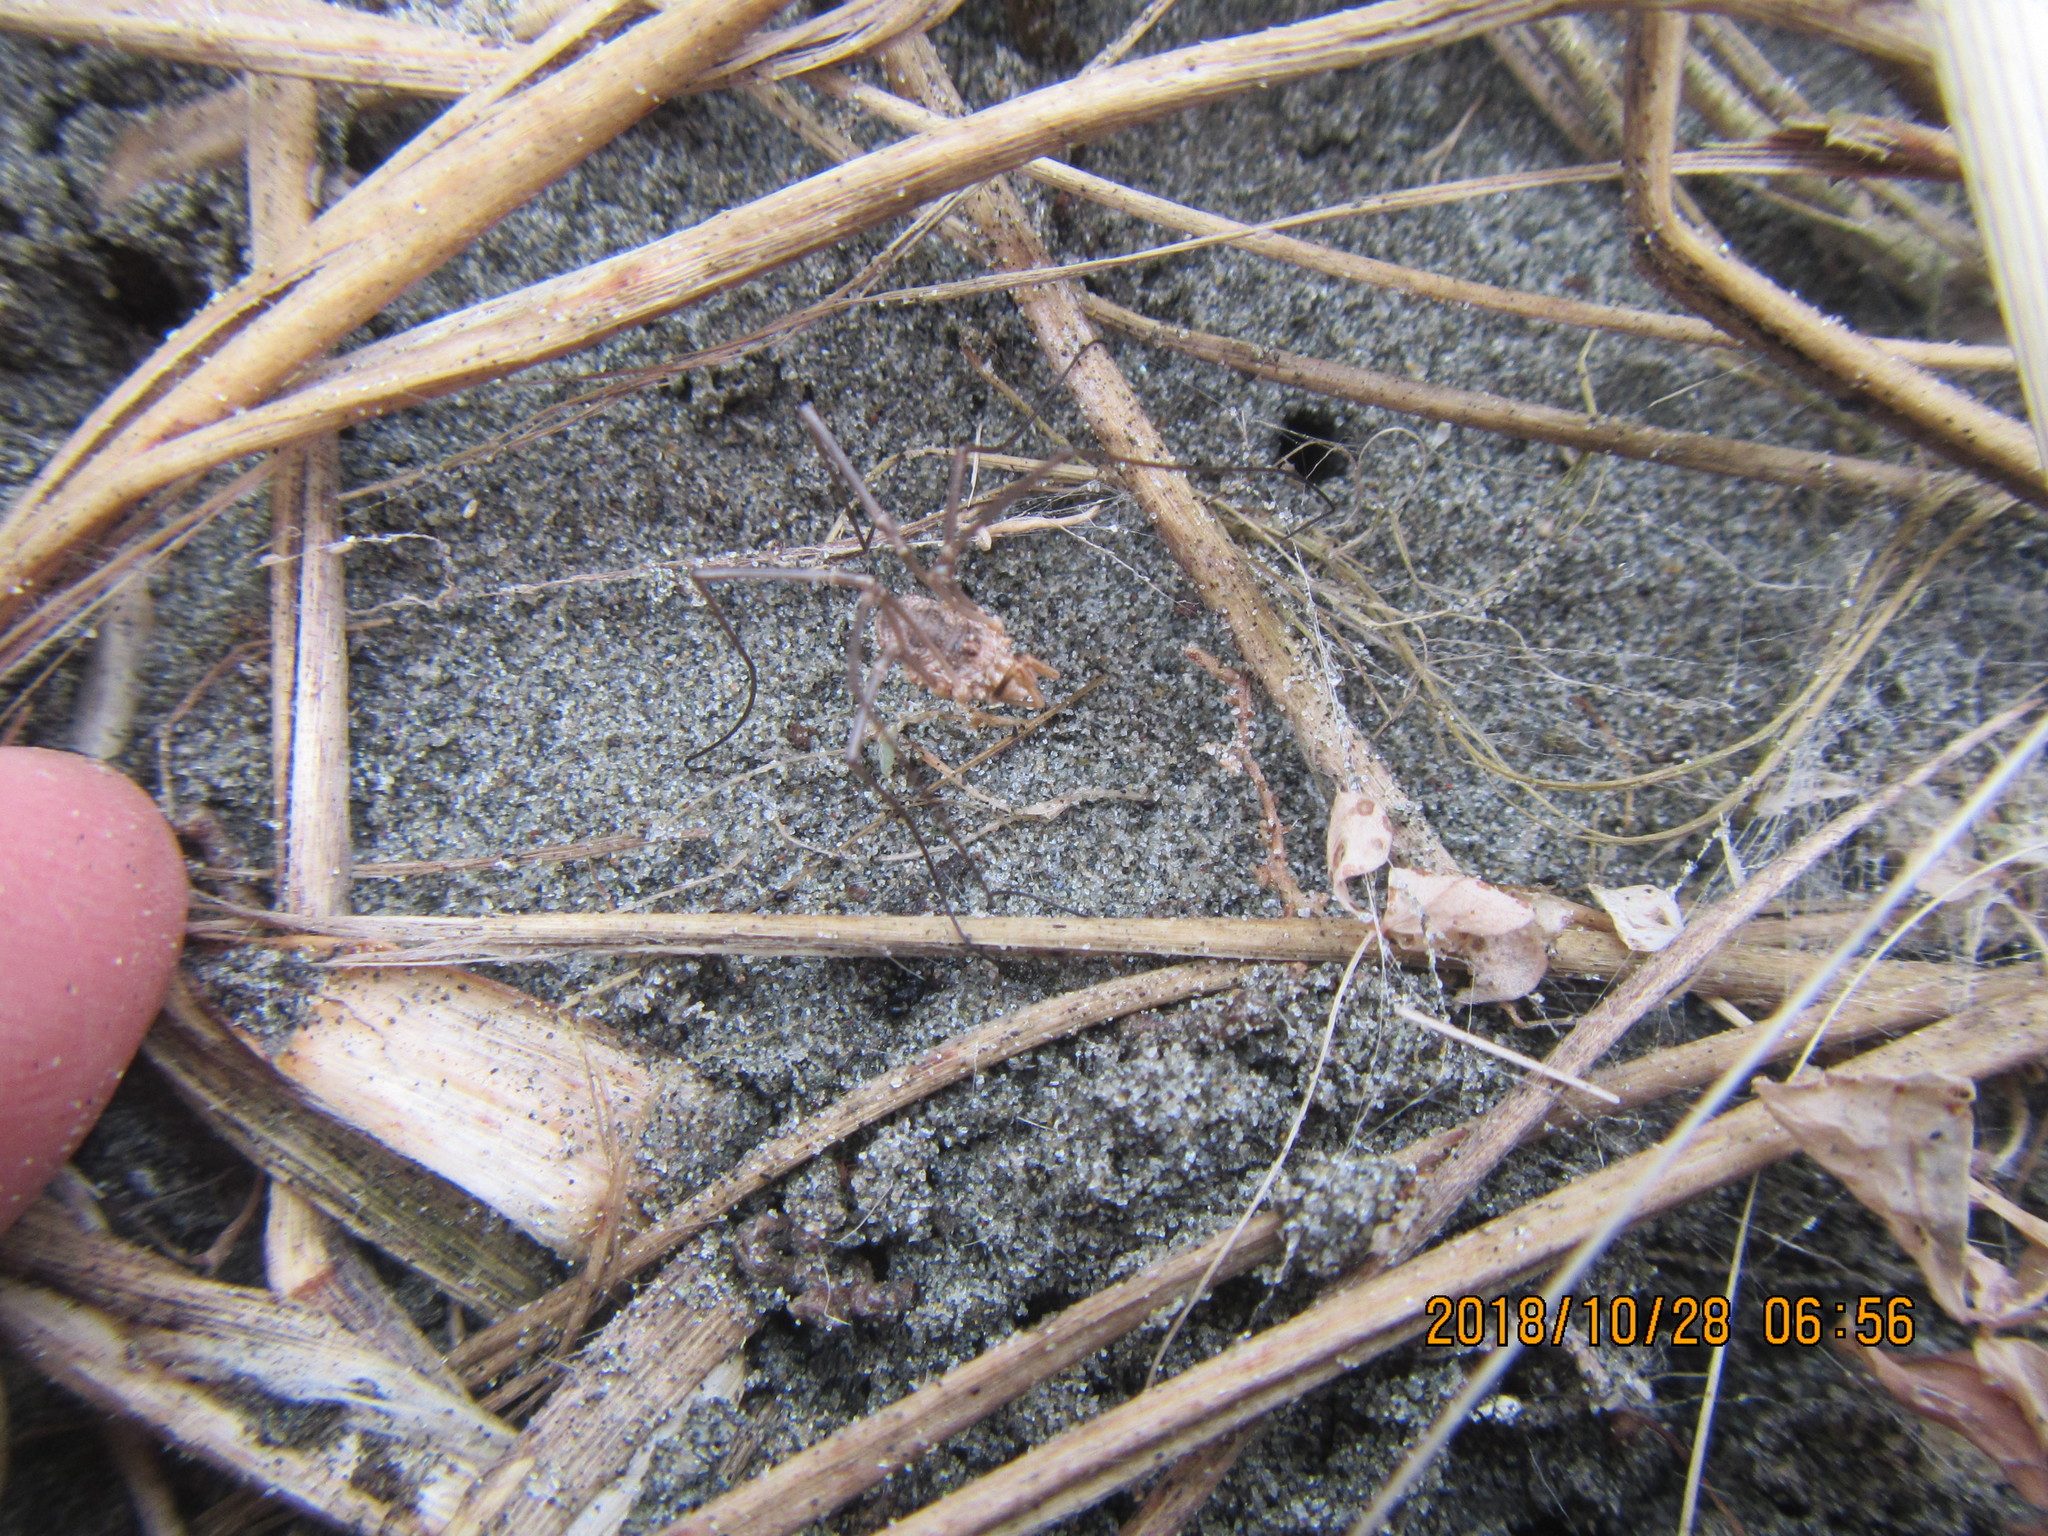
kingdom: Animalia
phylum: Arthropoda
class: Arachnida
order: Opiliones
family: Phalangiidae
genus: Phalangium
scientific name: Phalangium opilio
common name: Daddy longleg
